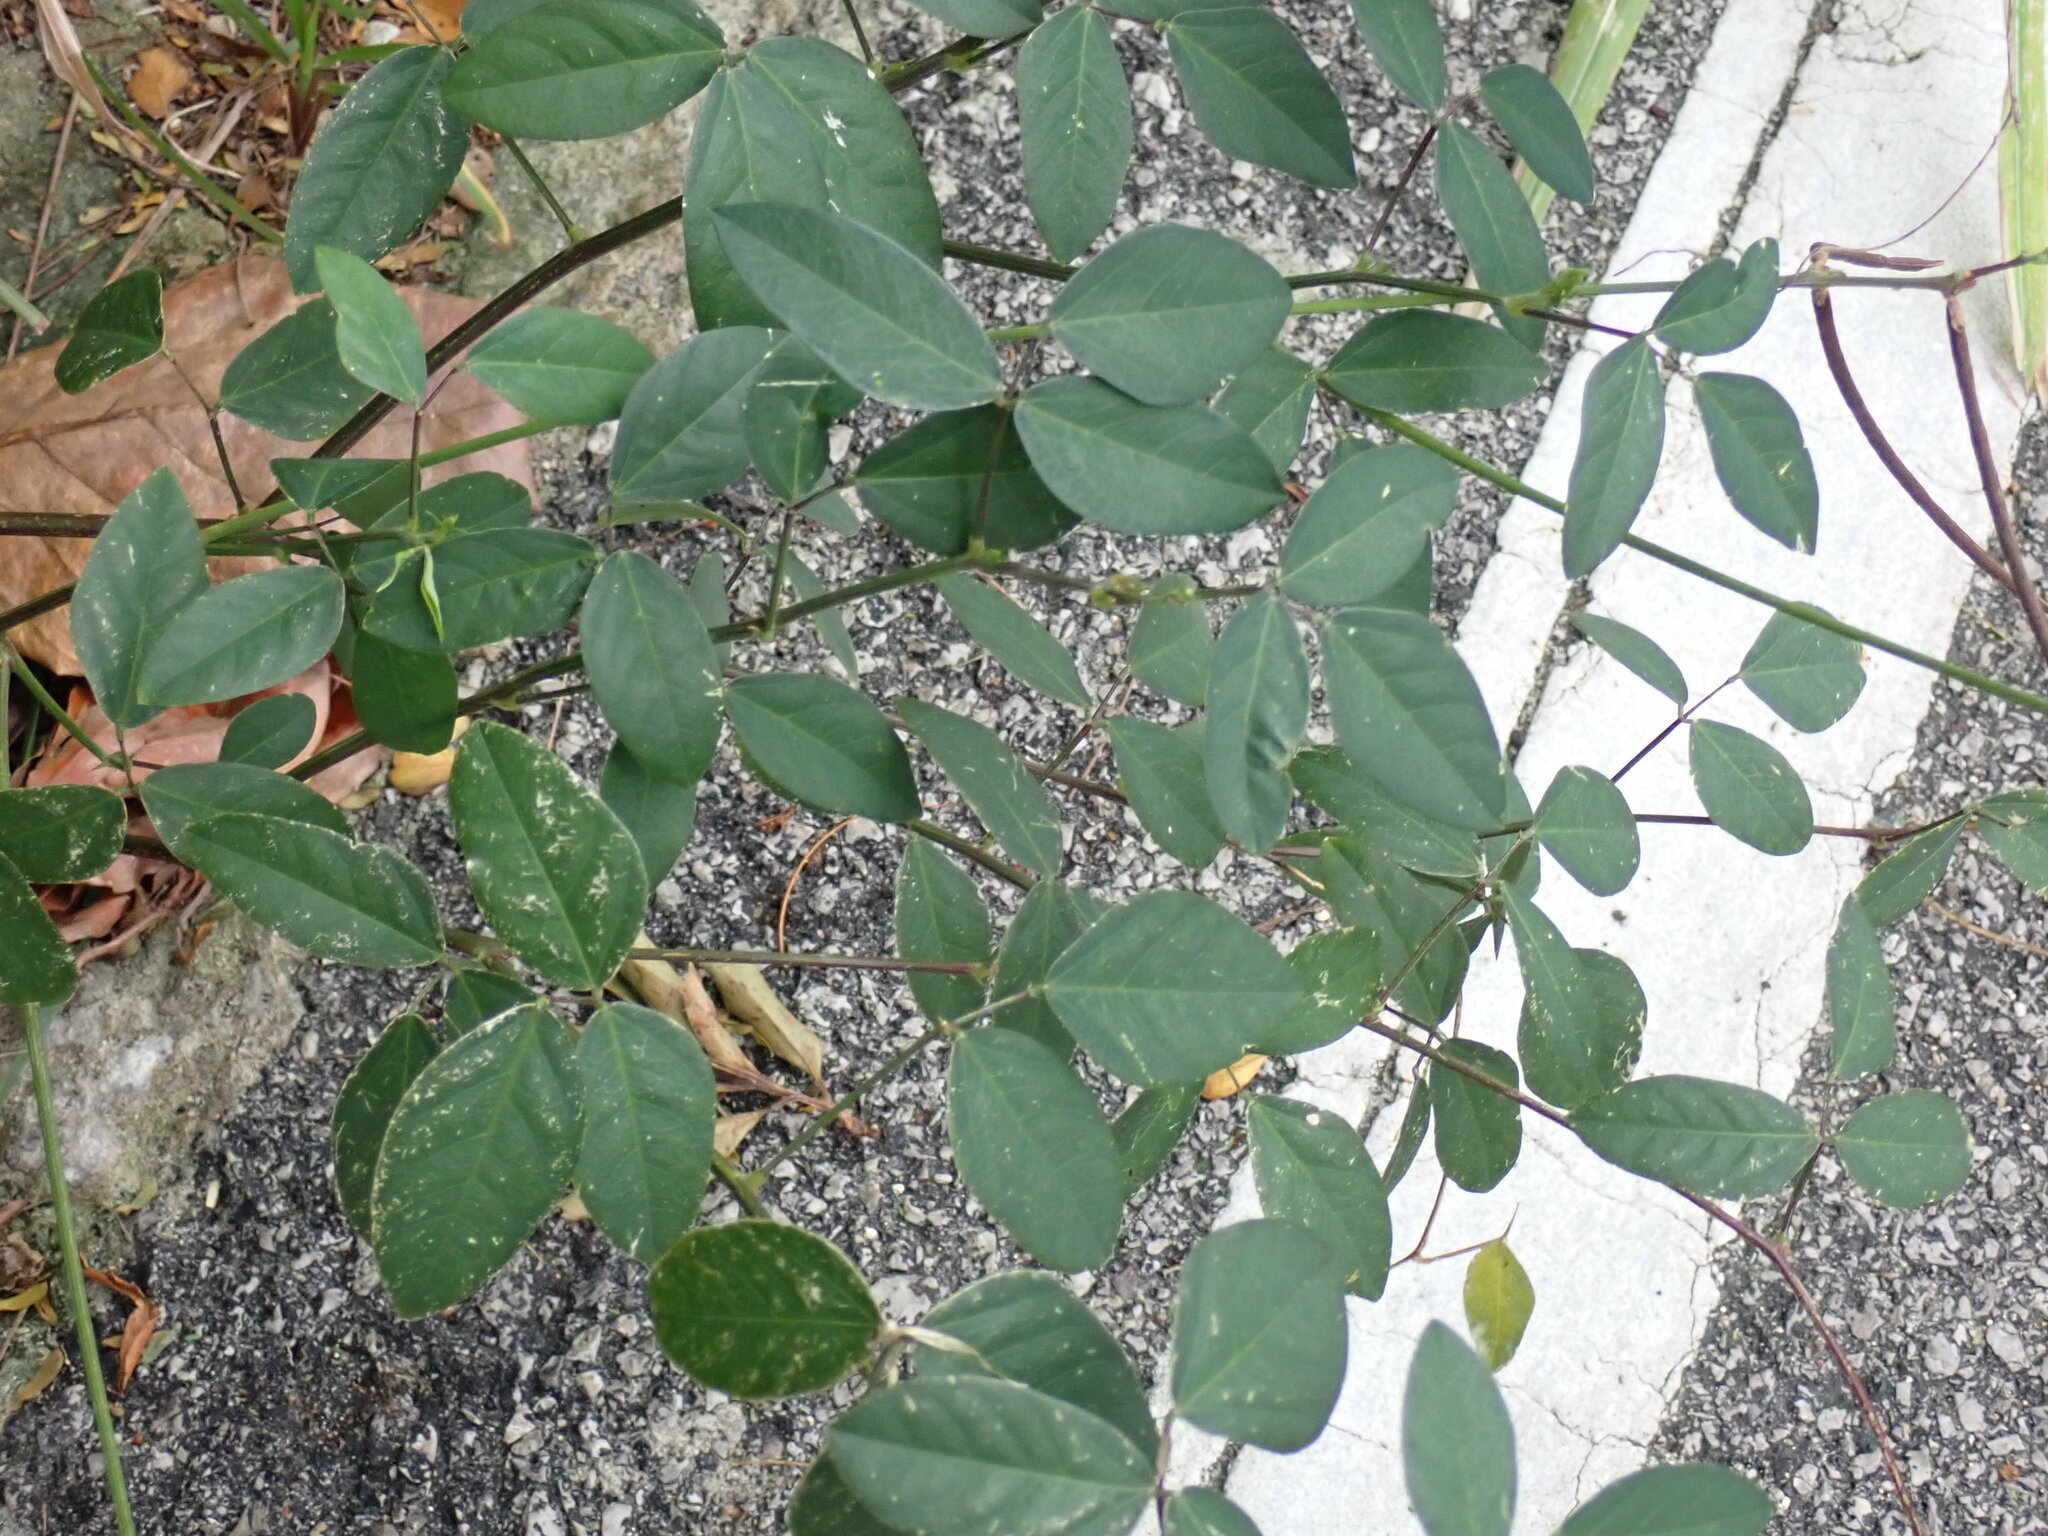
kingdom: Plantae
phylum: Tracheophyta
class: Magnoliopsida
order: Fabales
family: Fabaceae
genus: Macroptilium
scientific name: Macroptilium lathyroides
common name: Wild bushbean
